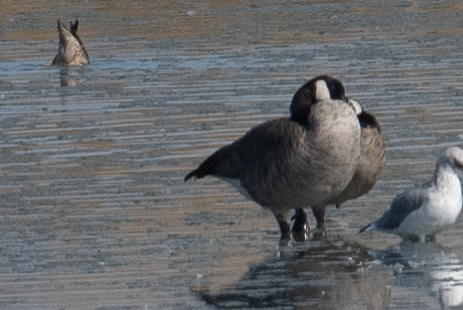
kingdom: Animalia
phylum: Chordata
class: Aves
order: Anseriformes
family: Anatidae
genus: Branta
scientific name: Branta canadensis
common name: Canada goose
